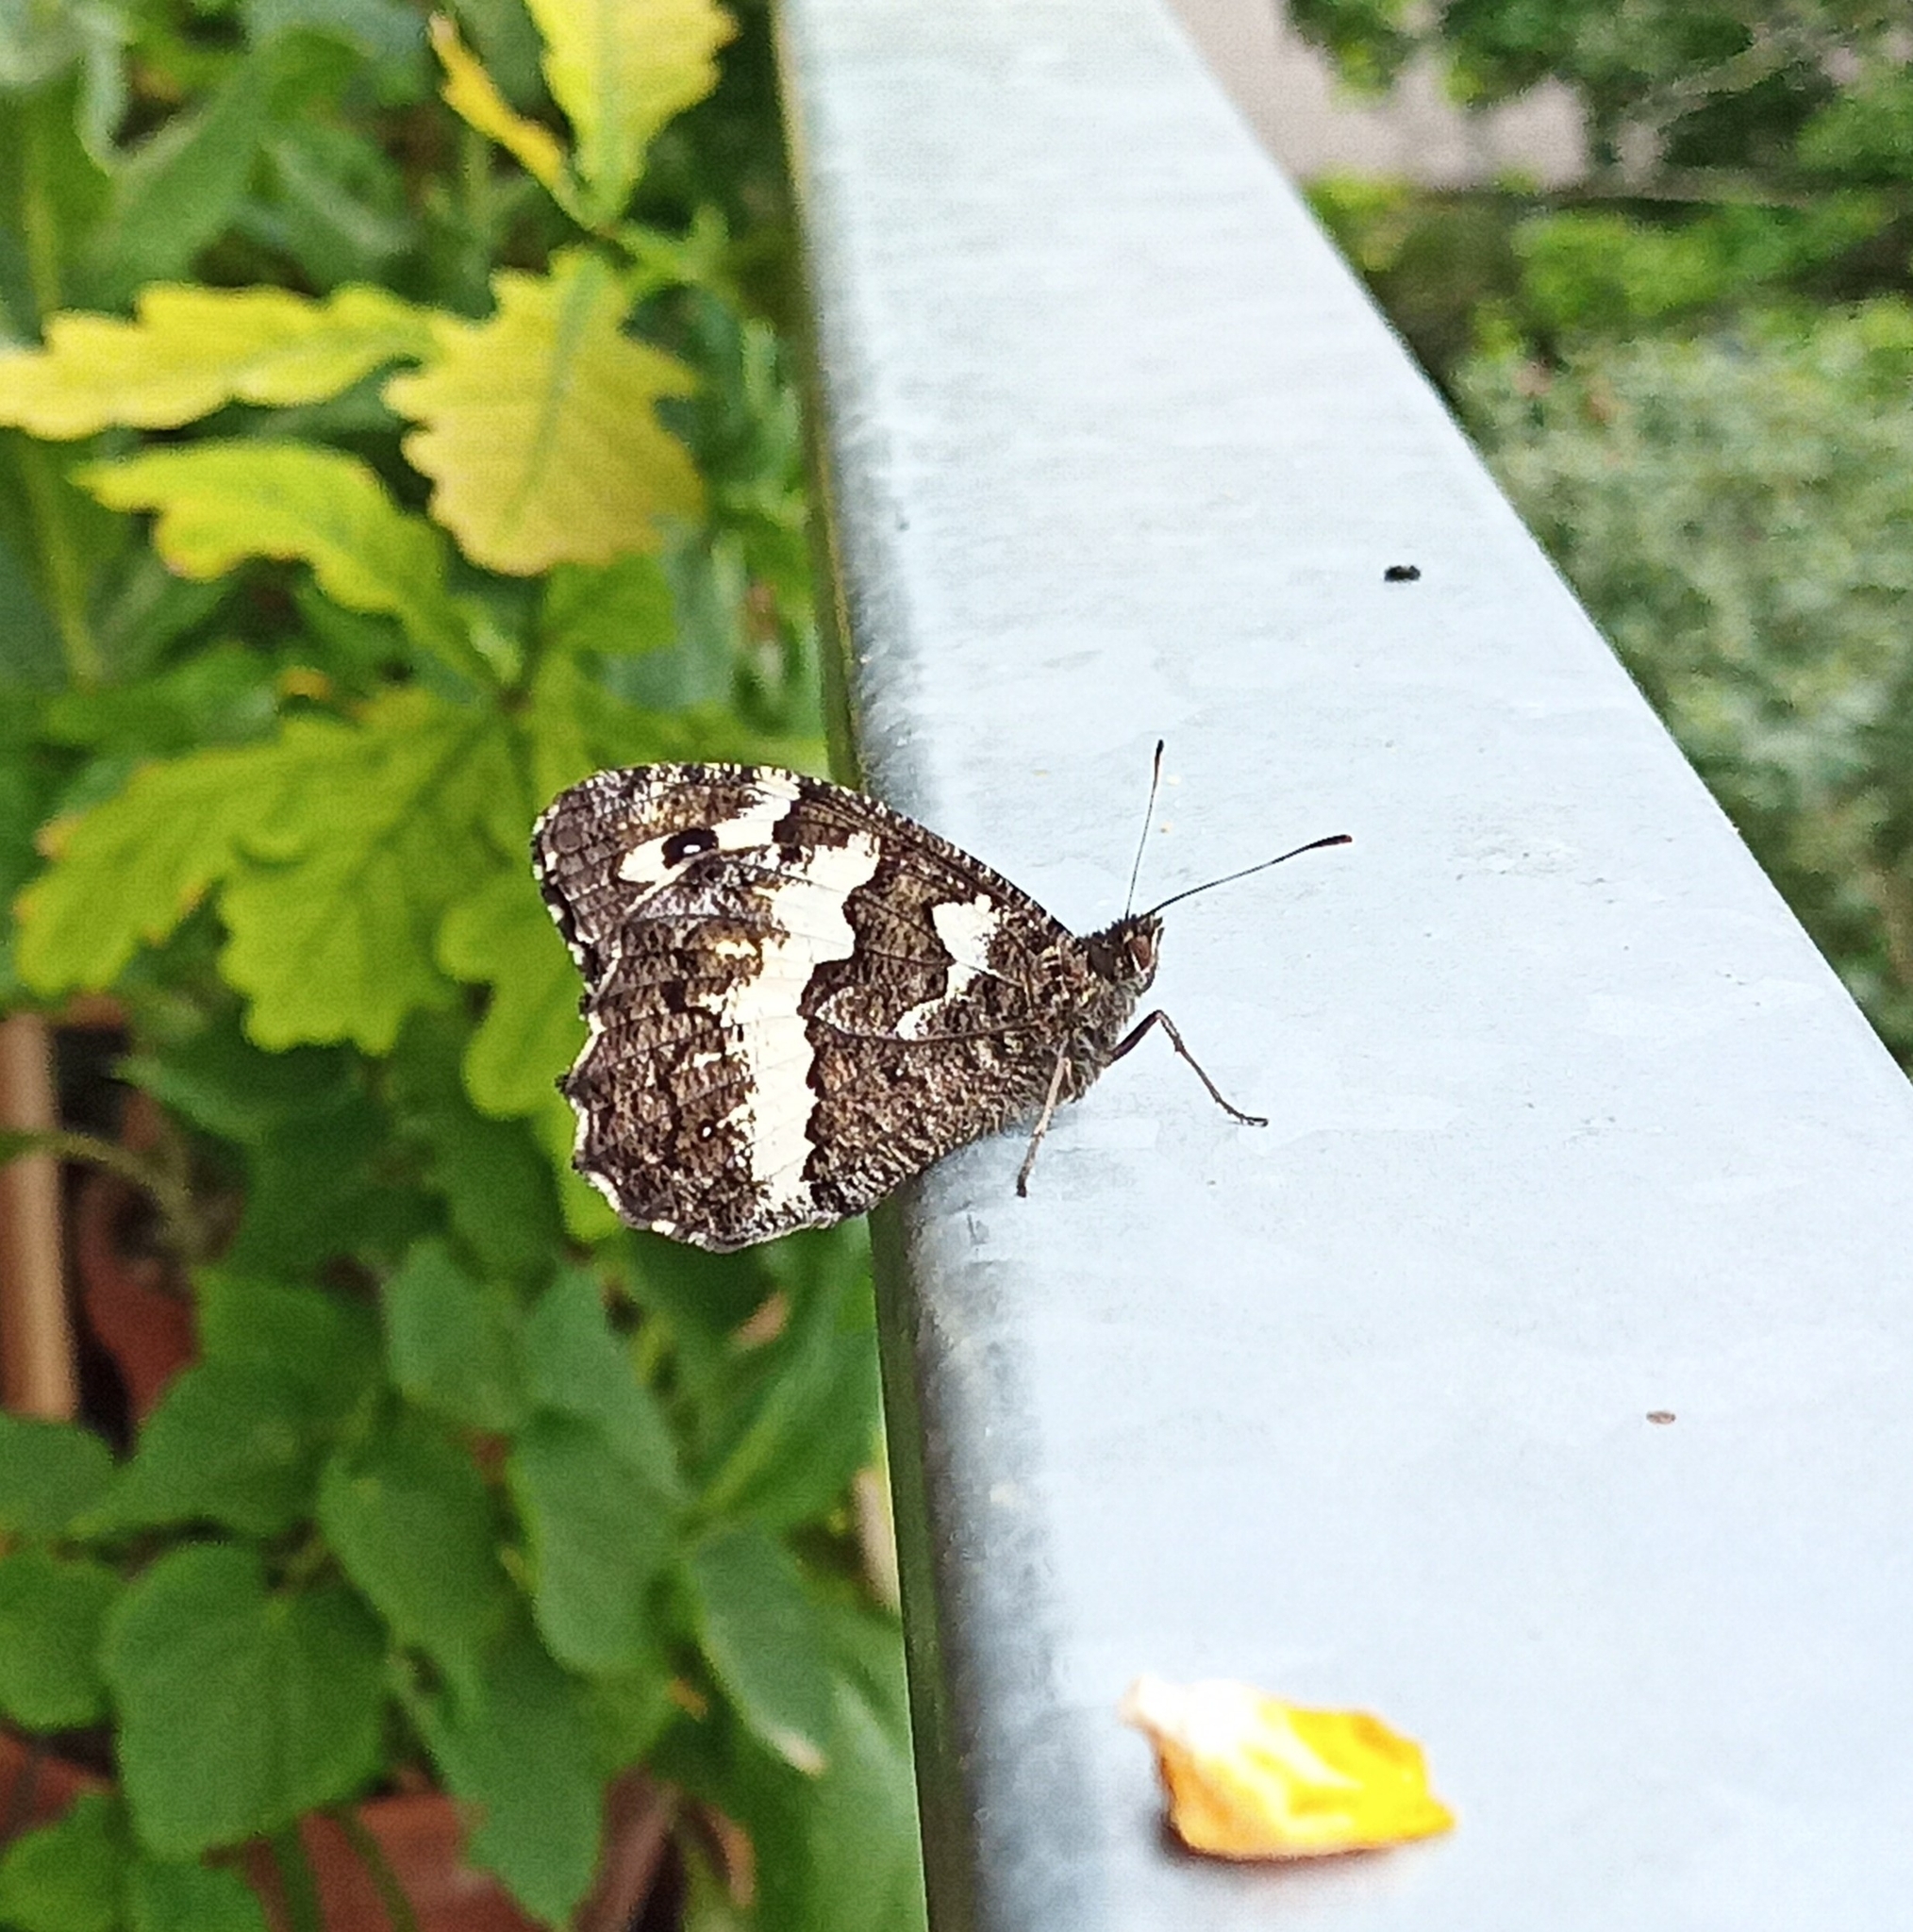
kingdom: Animalia
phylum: Arthropoda
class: Insecta
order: Lepidoptera
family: Lycaenidae
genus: Loweia
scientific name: Loweia tityrus
